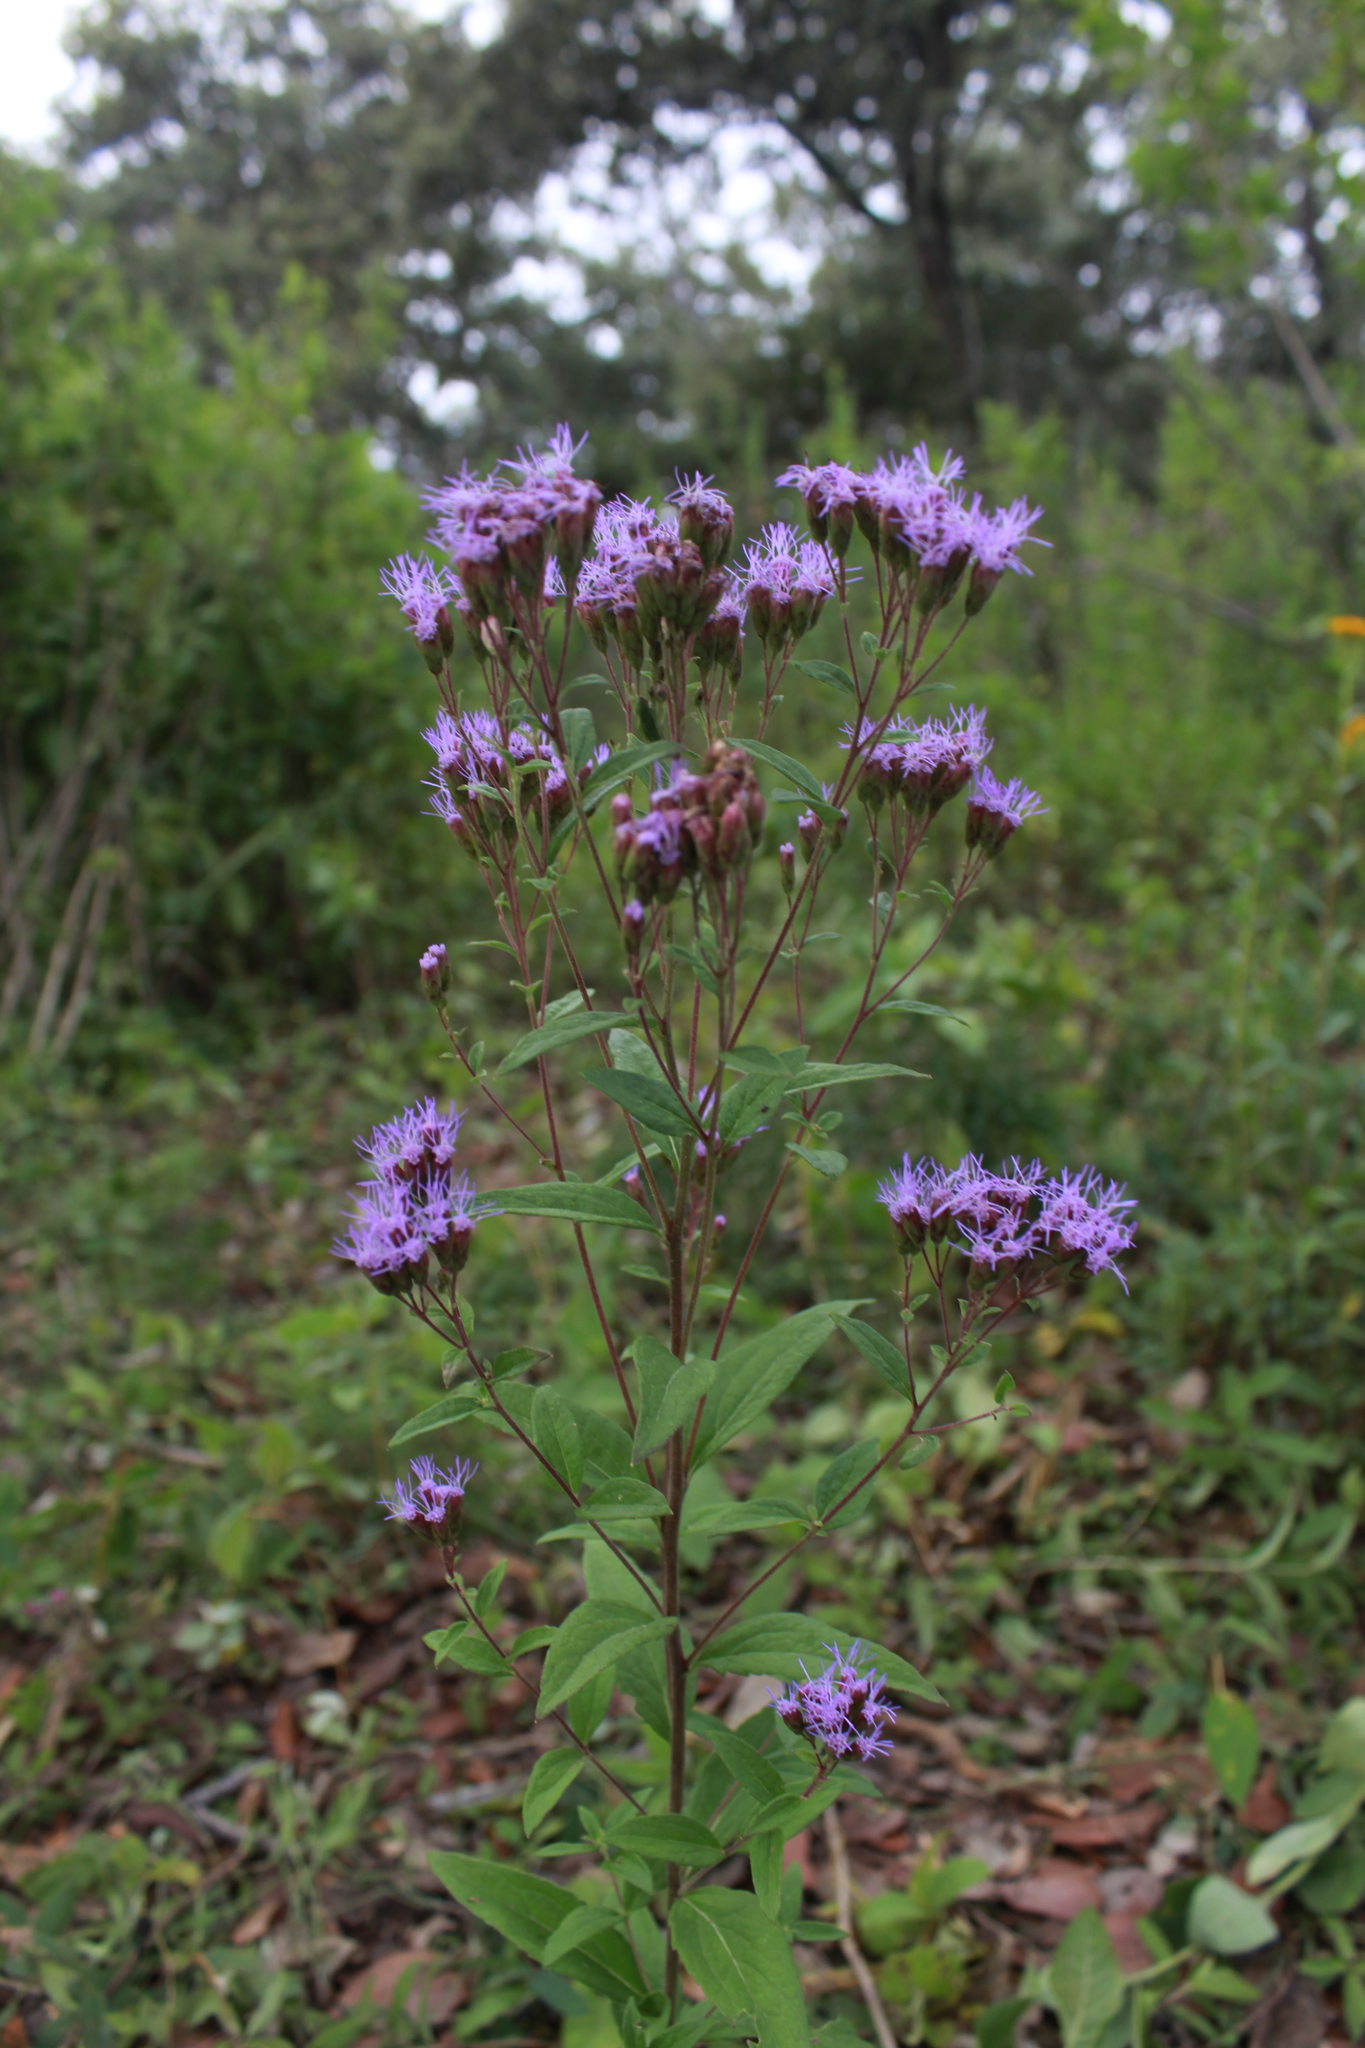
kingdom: Plantae
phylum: Tracheophyta
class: Magnoliopsida
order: Asterales
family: Asteraceae
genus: Chromolaena
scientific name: Chromolaena pulchella
